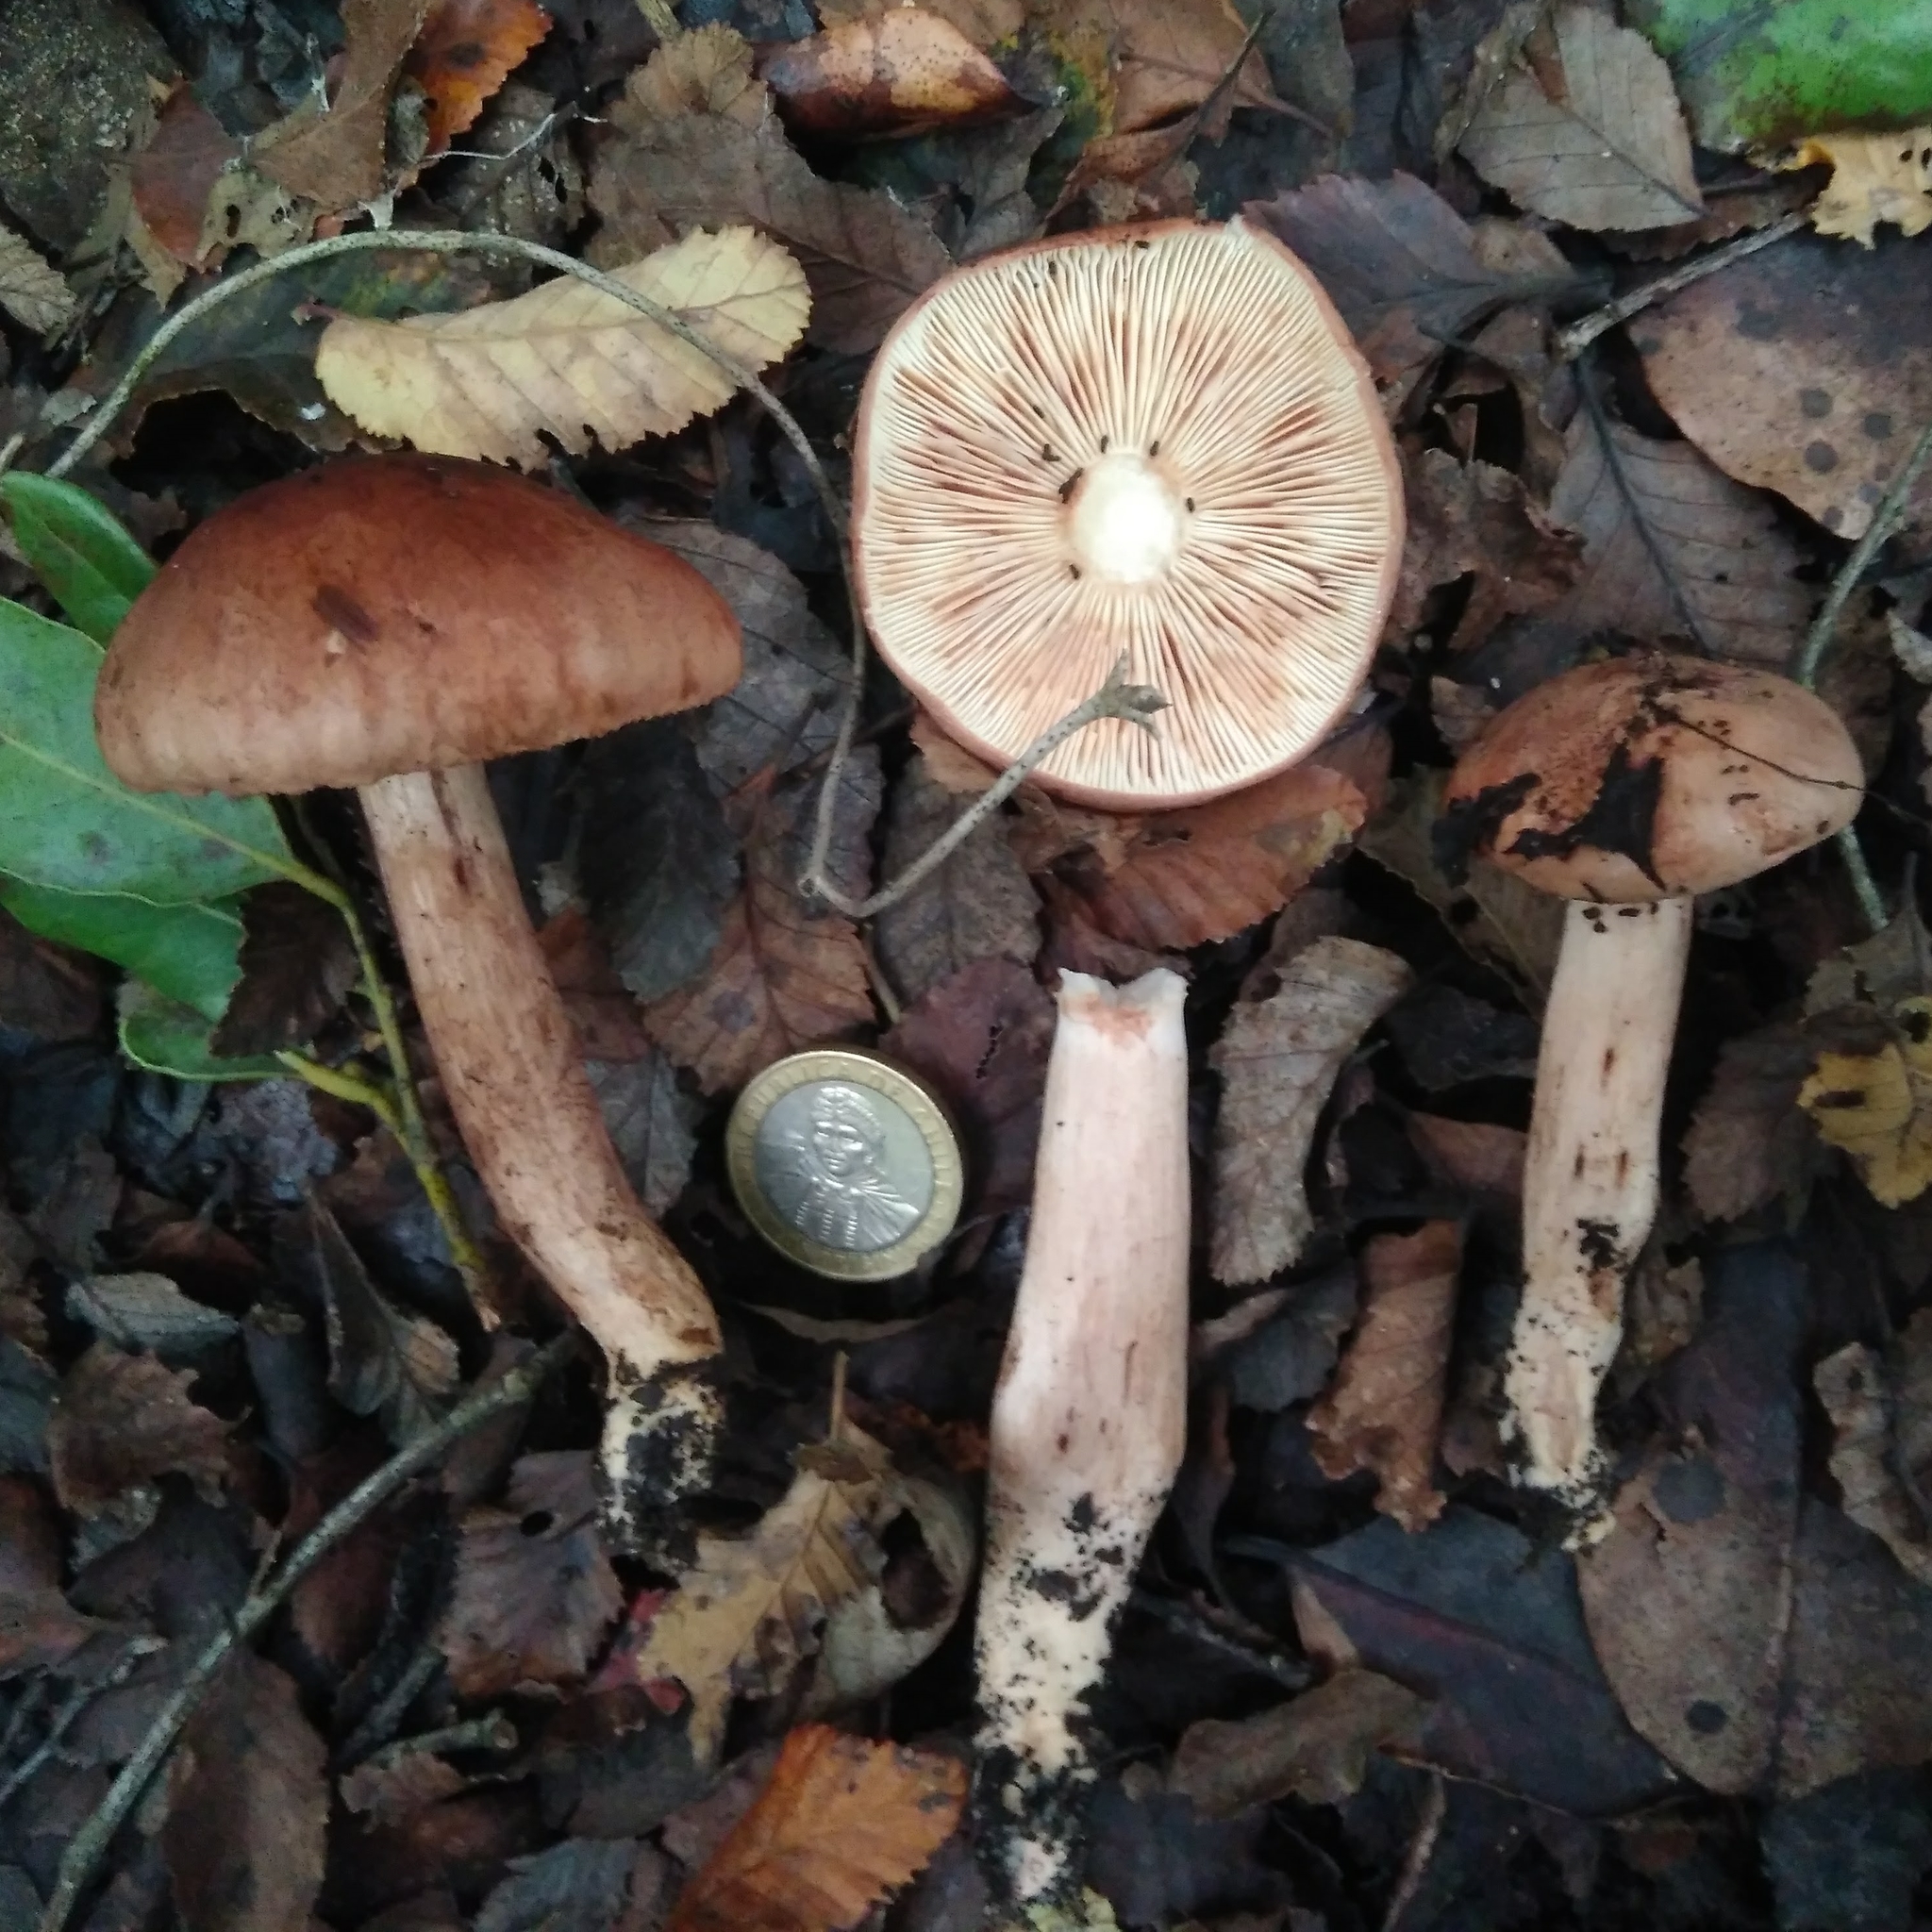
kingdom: Fungi
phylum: Basidiomycota
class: Agaricomycetes
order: Agaricales
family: Tricholomataceae
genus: Tricholoma
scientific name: Tricholoma fusipes
